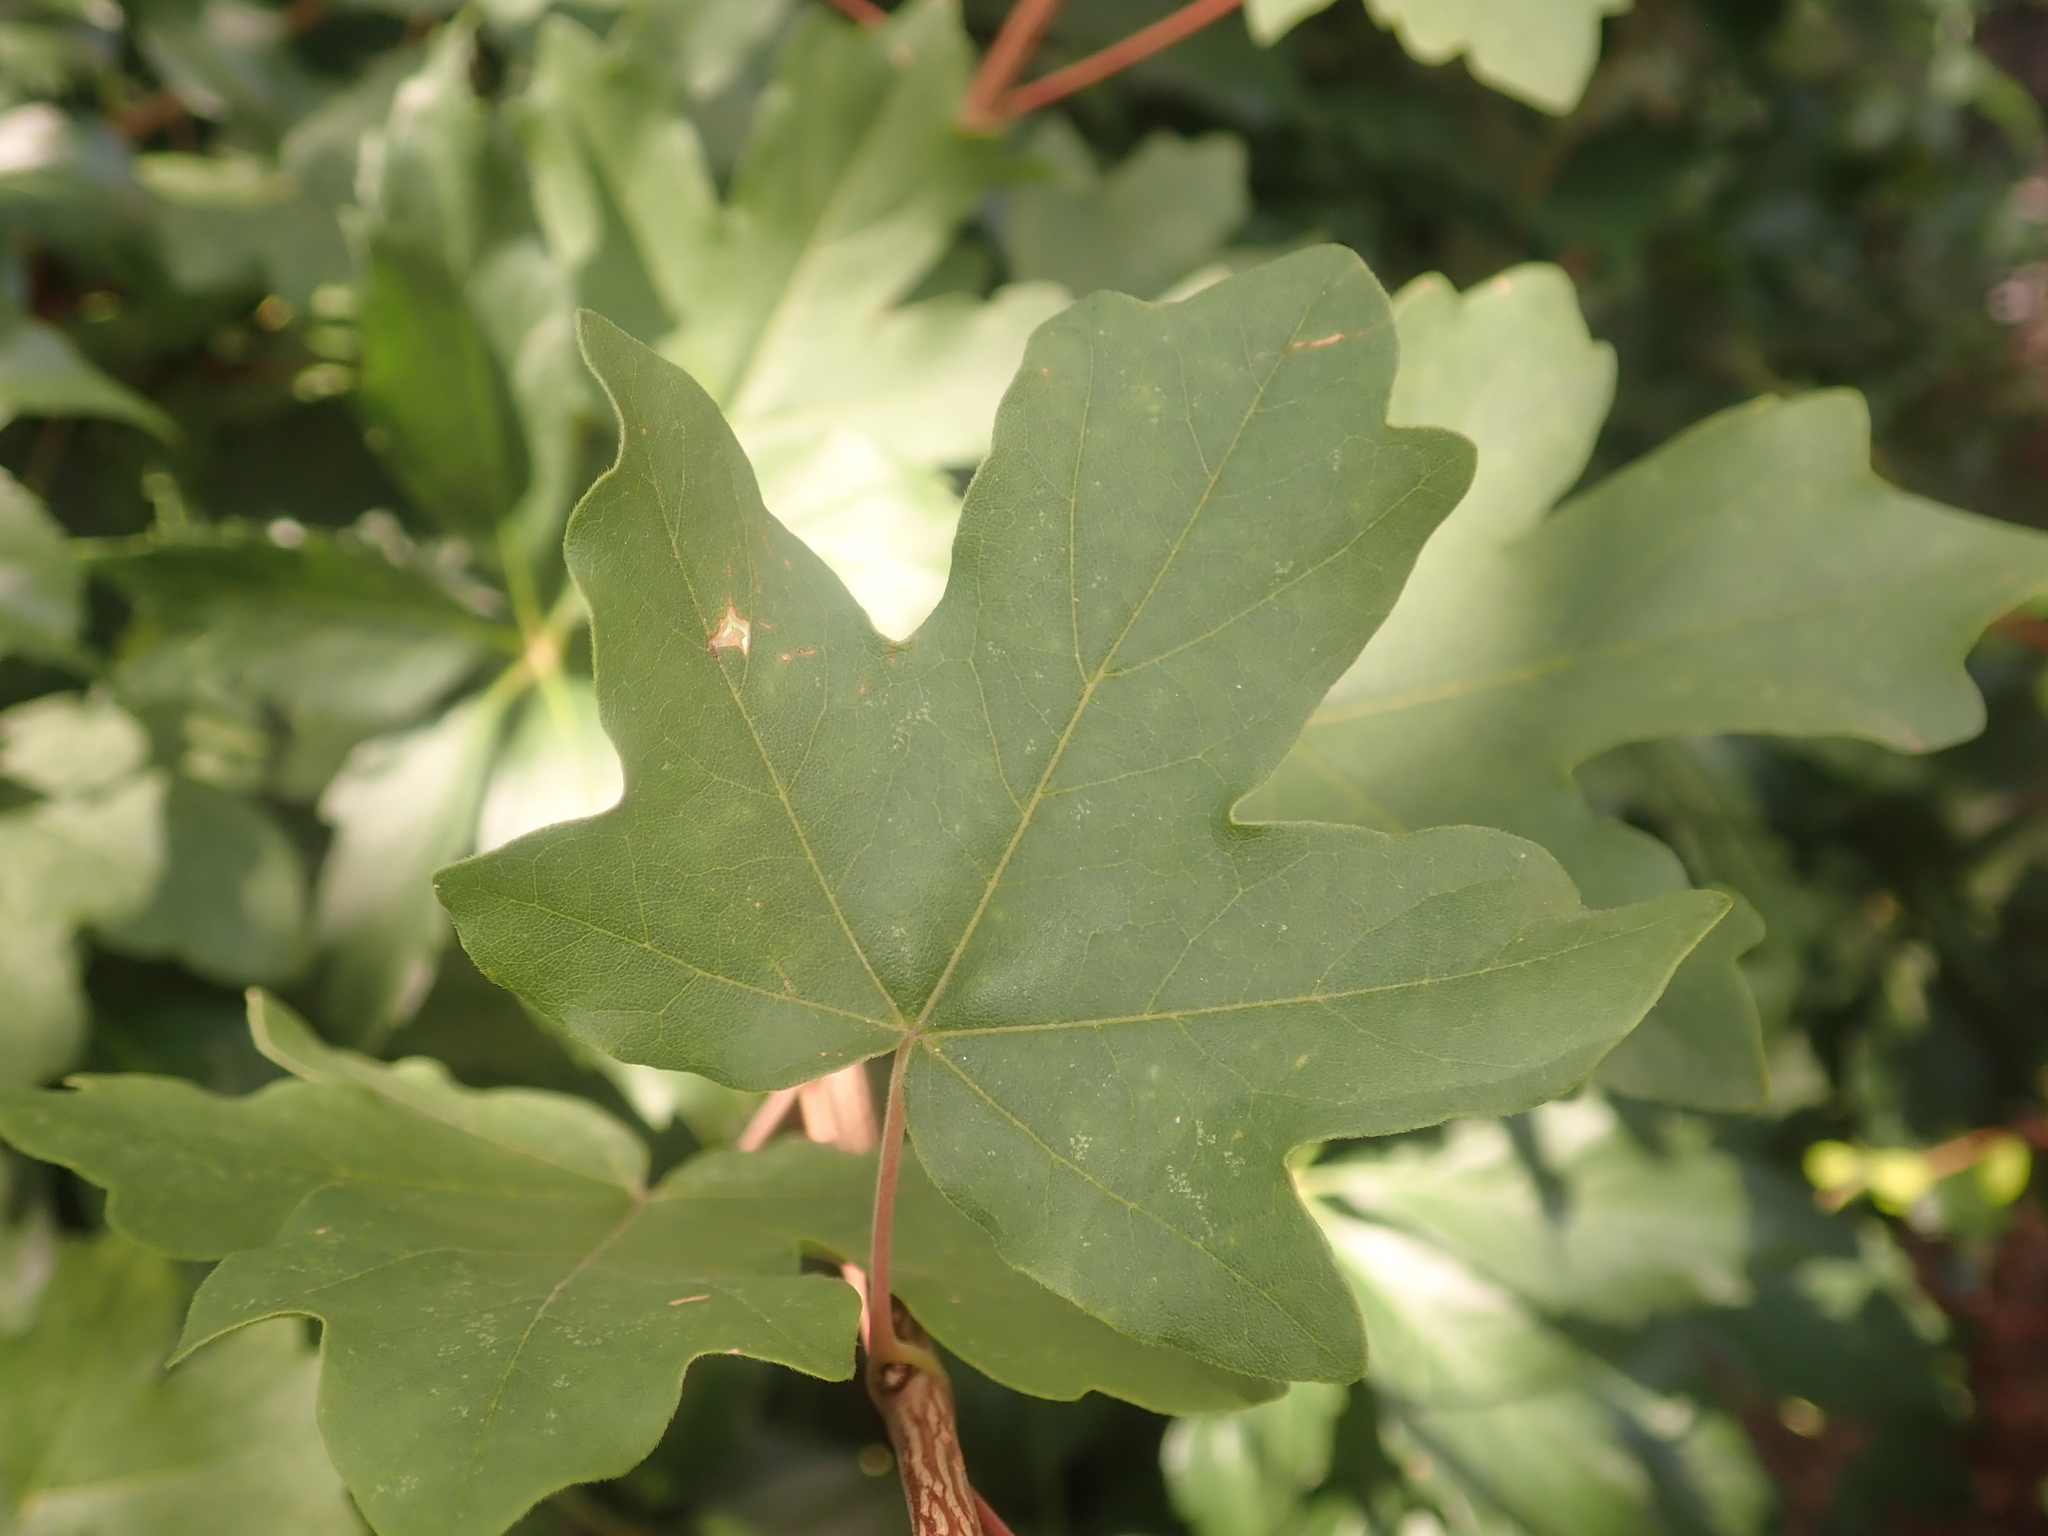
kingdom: Plantae
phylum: Tracheophyta
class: Magnoliopsida
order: Sapindales
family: Sapindaceae
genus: Acer
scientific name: Acer campestre
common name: Field maple
